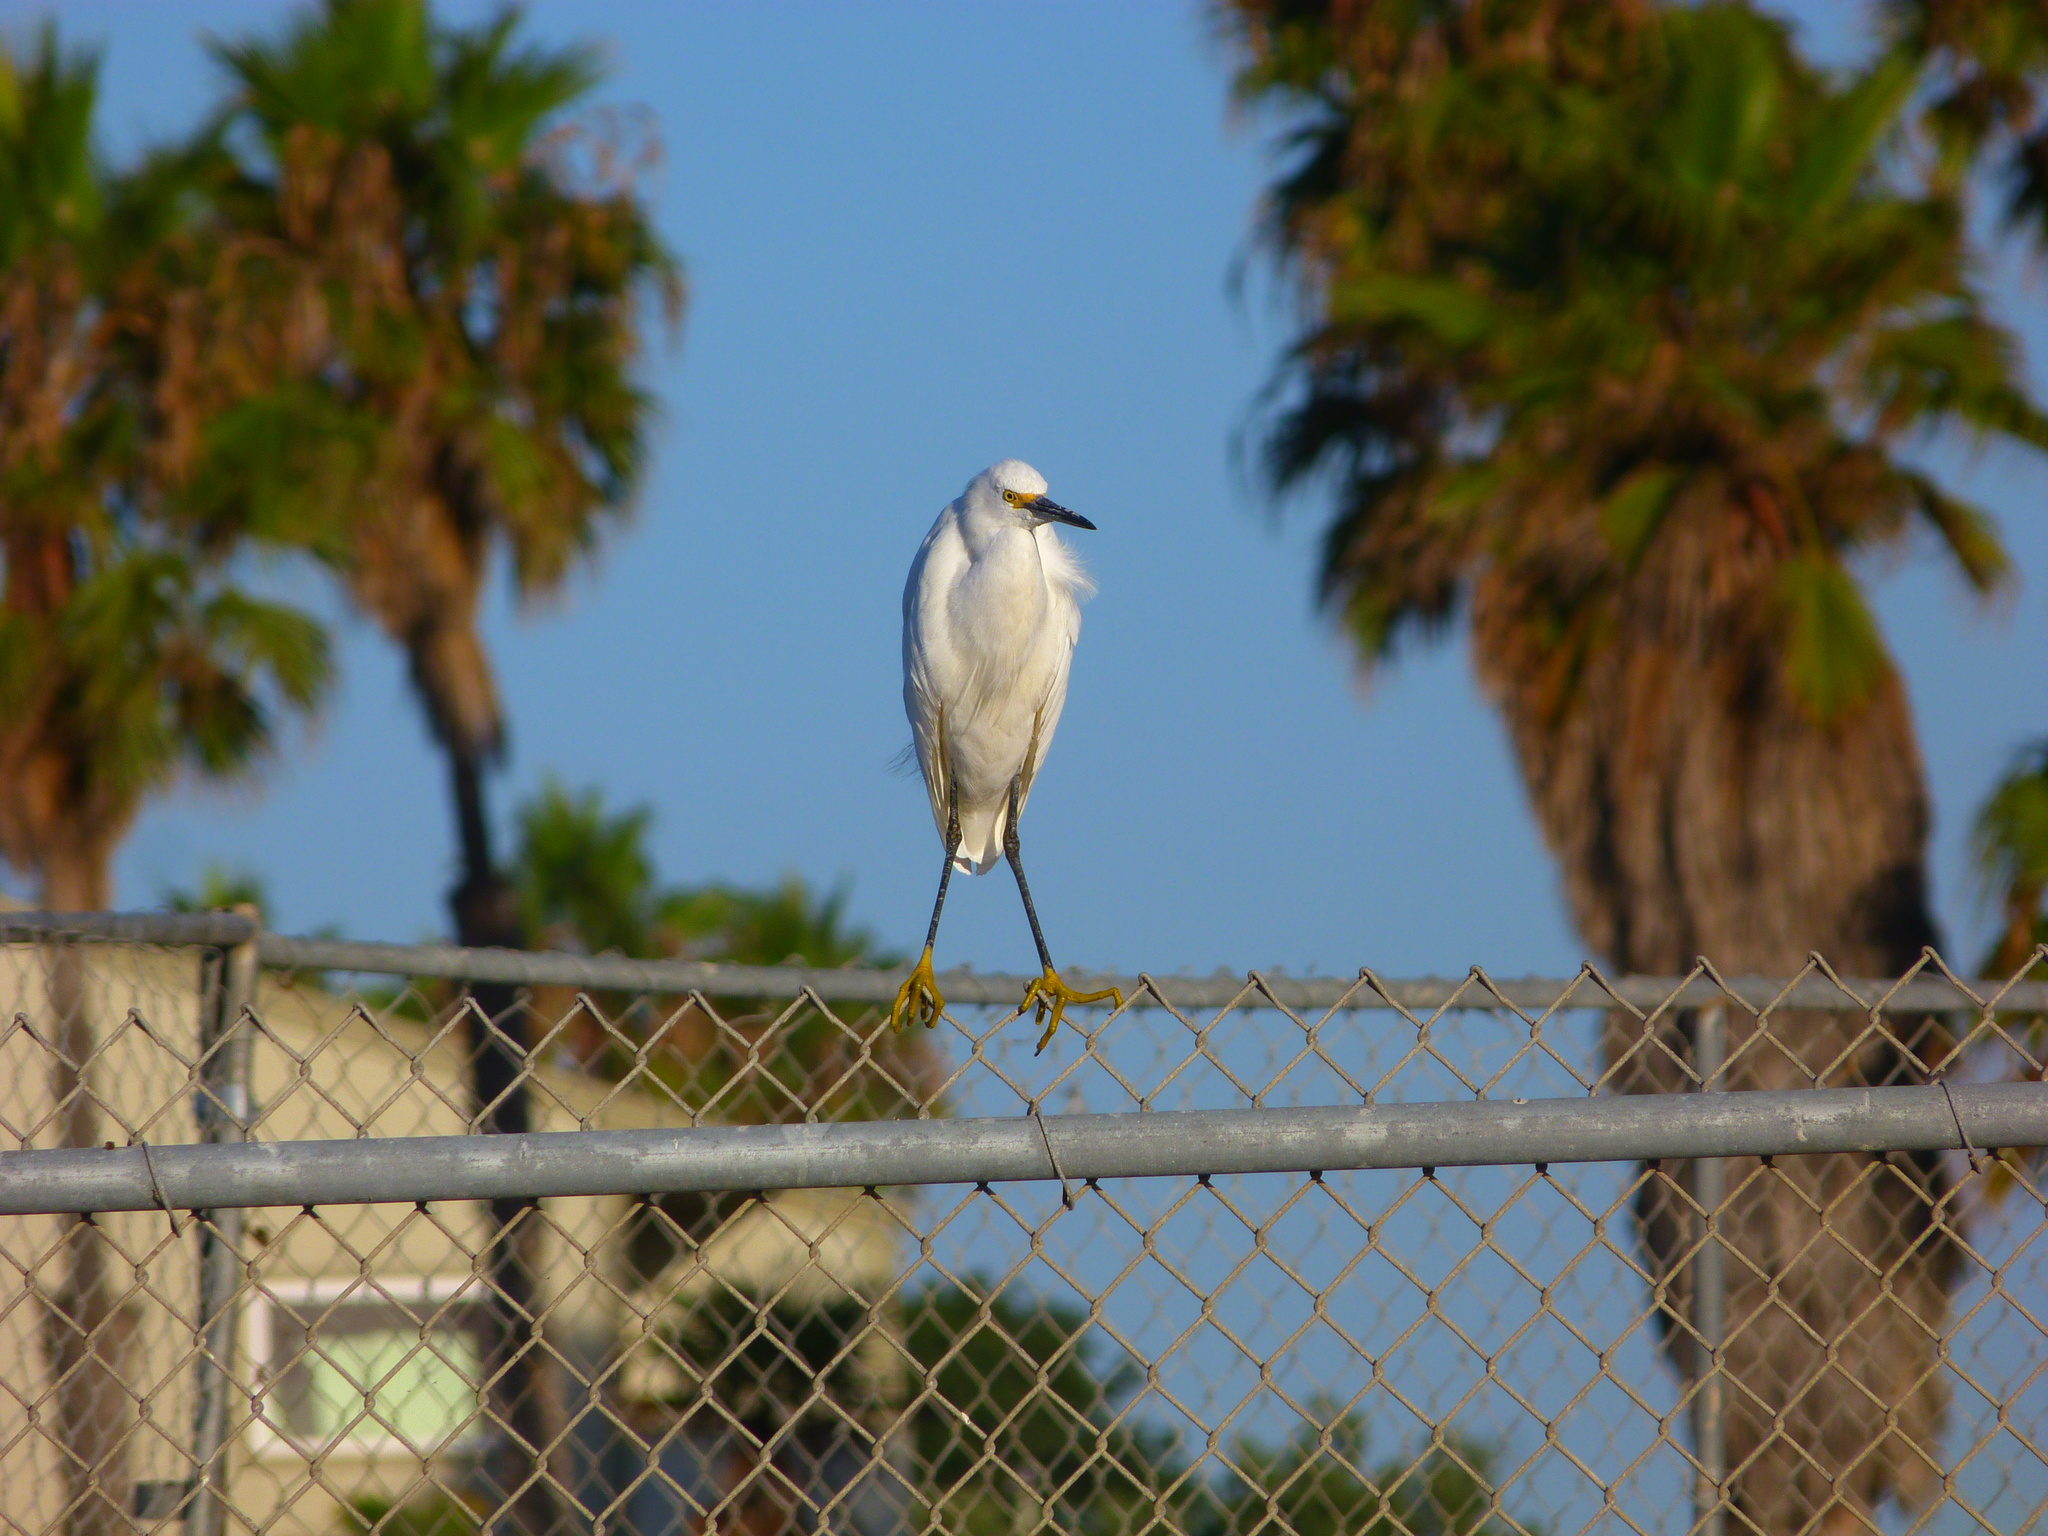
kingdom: Animalia
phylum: Chordata
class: Aves
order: Pelecaniformes
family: Ardeidae
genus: Egretta
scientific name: Egretta thula
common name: Snowy egret
